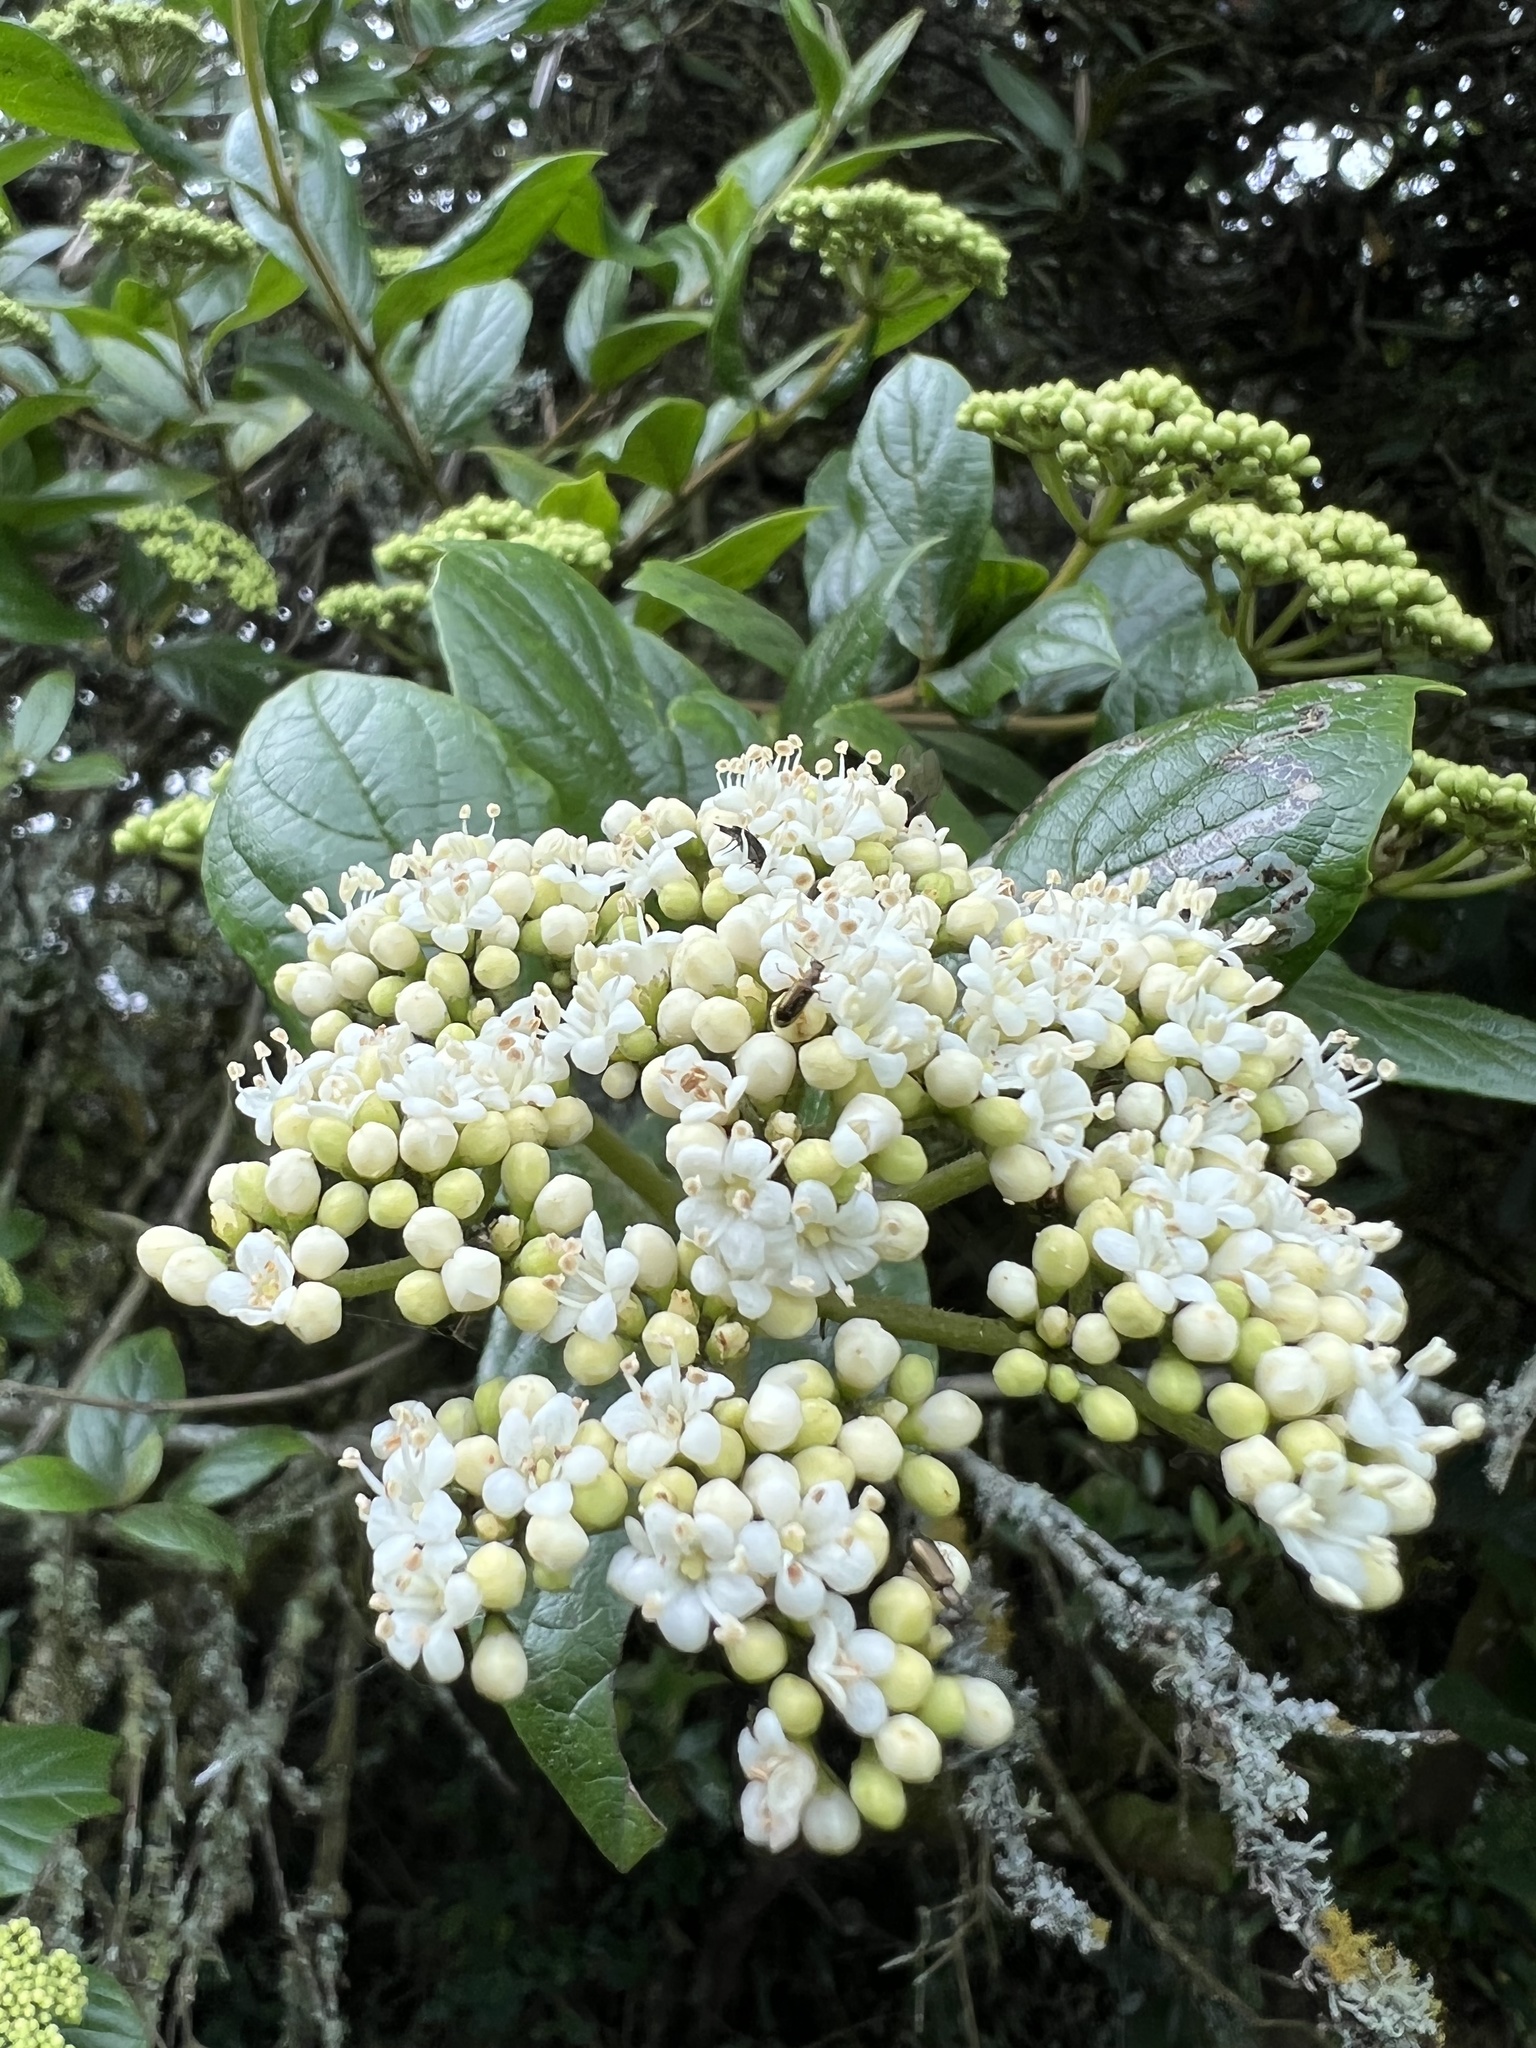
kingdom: Plantae
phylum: Tracheophyta
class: Magnoliopsida
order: Dipsacales
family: Viburnaceae
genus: Viburnum
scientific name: Viburnum tinoides
